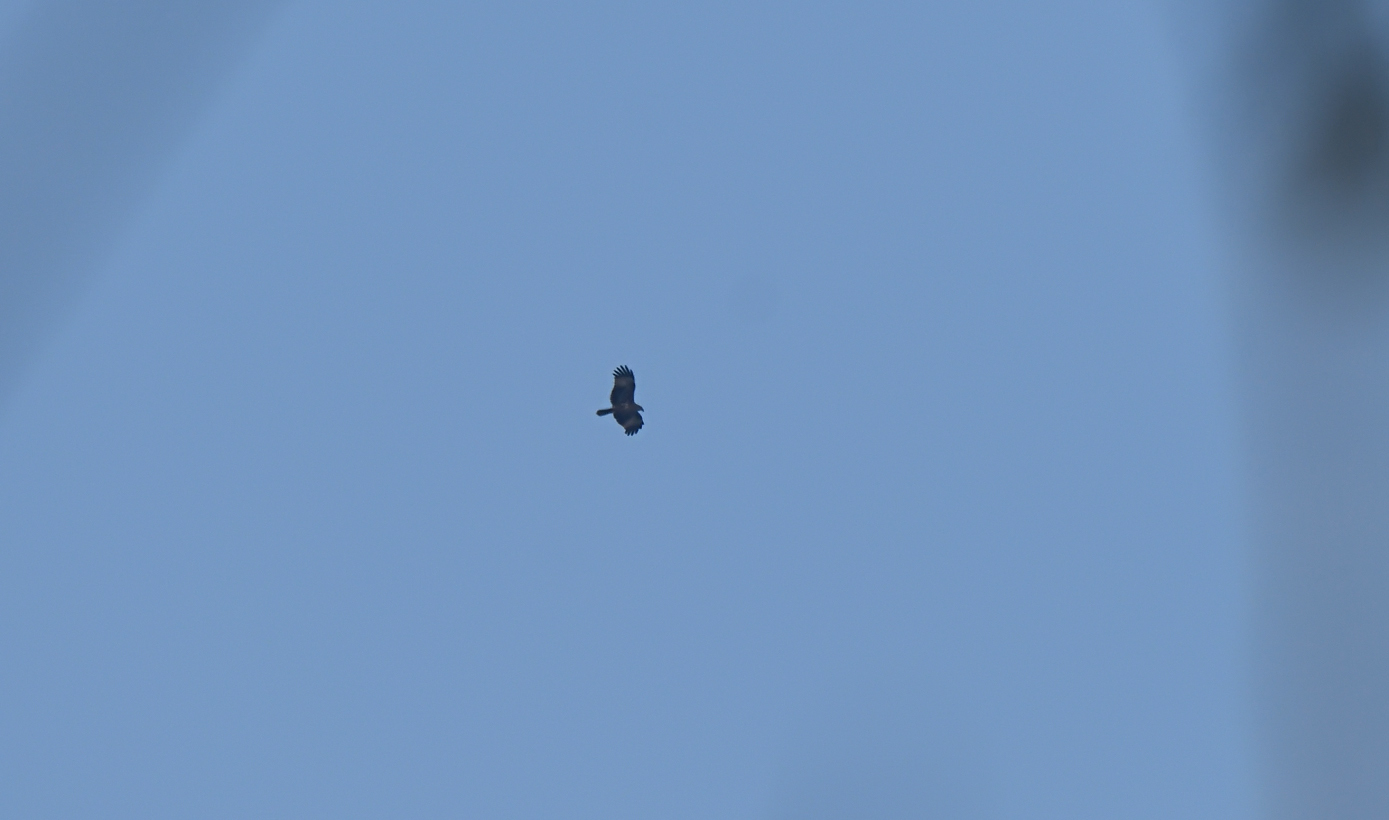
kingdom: Animalia
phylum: Chordata
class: Aves
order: Accipitriformes
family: Accipitridae
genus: Haliastur
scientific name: Haliastur indus
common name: Brahminy kite
